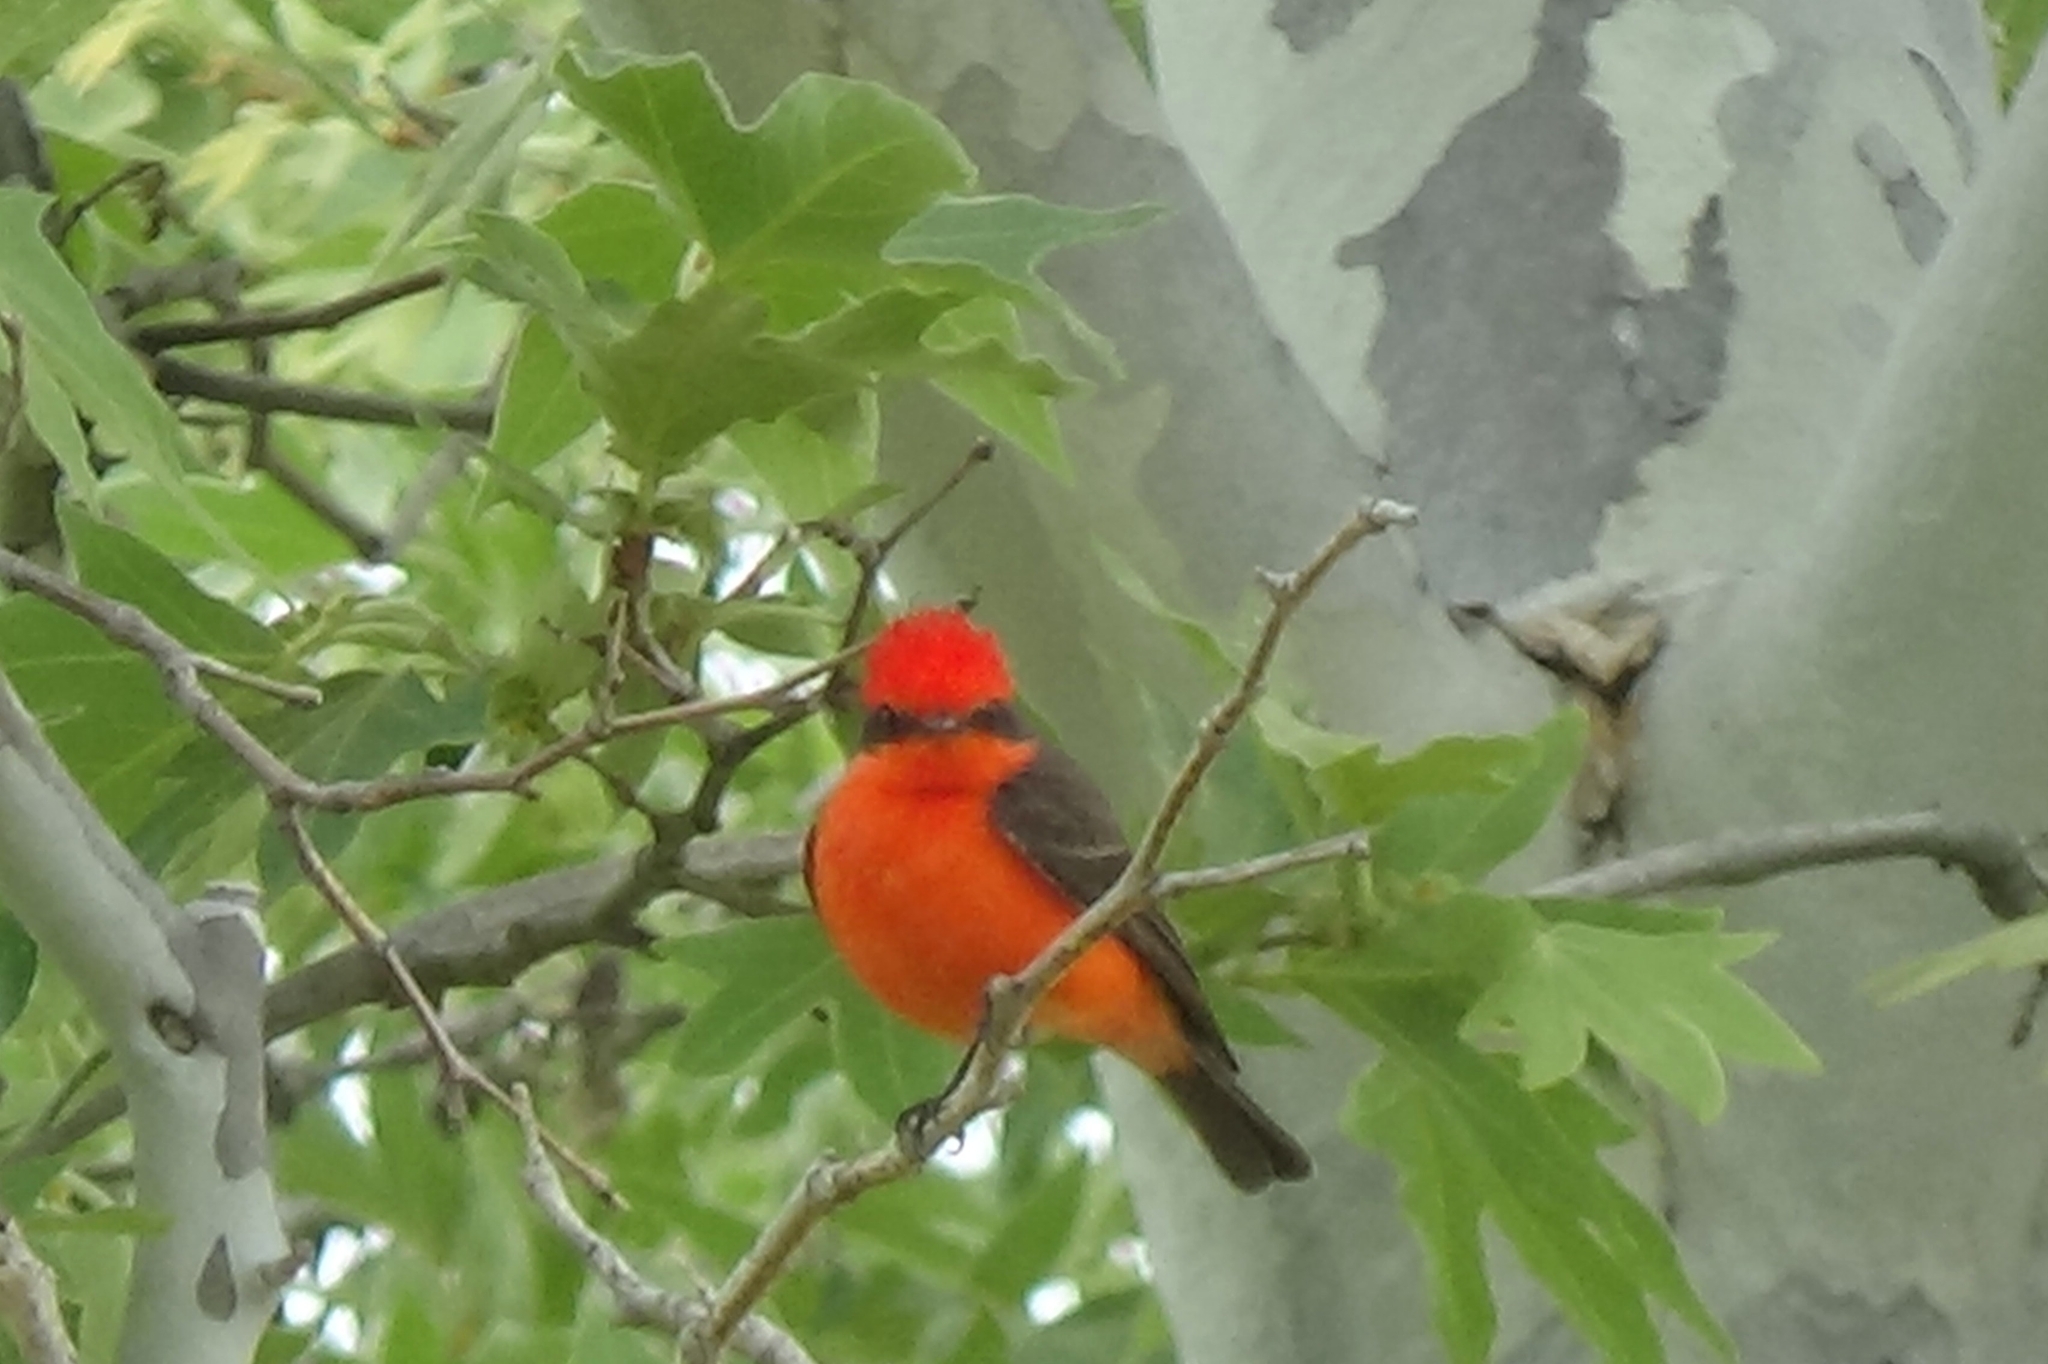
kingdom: Animalia
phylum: Chordata
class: Aves
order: Passeriformes
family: Tyrannidae
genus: Pyrocephalus
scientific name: Pyrocephalus rubinus
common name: Vermilion flycatcher
